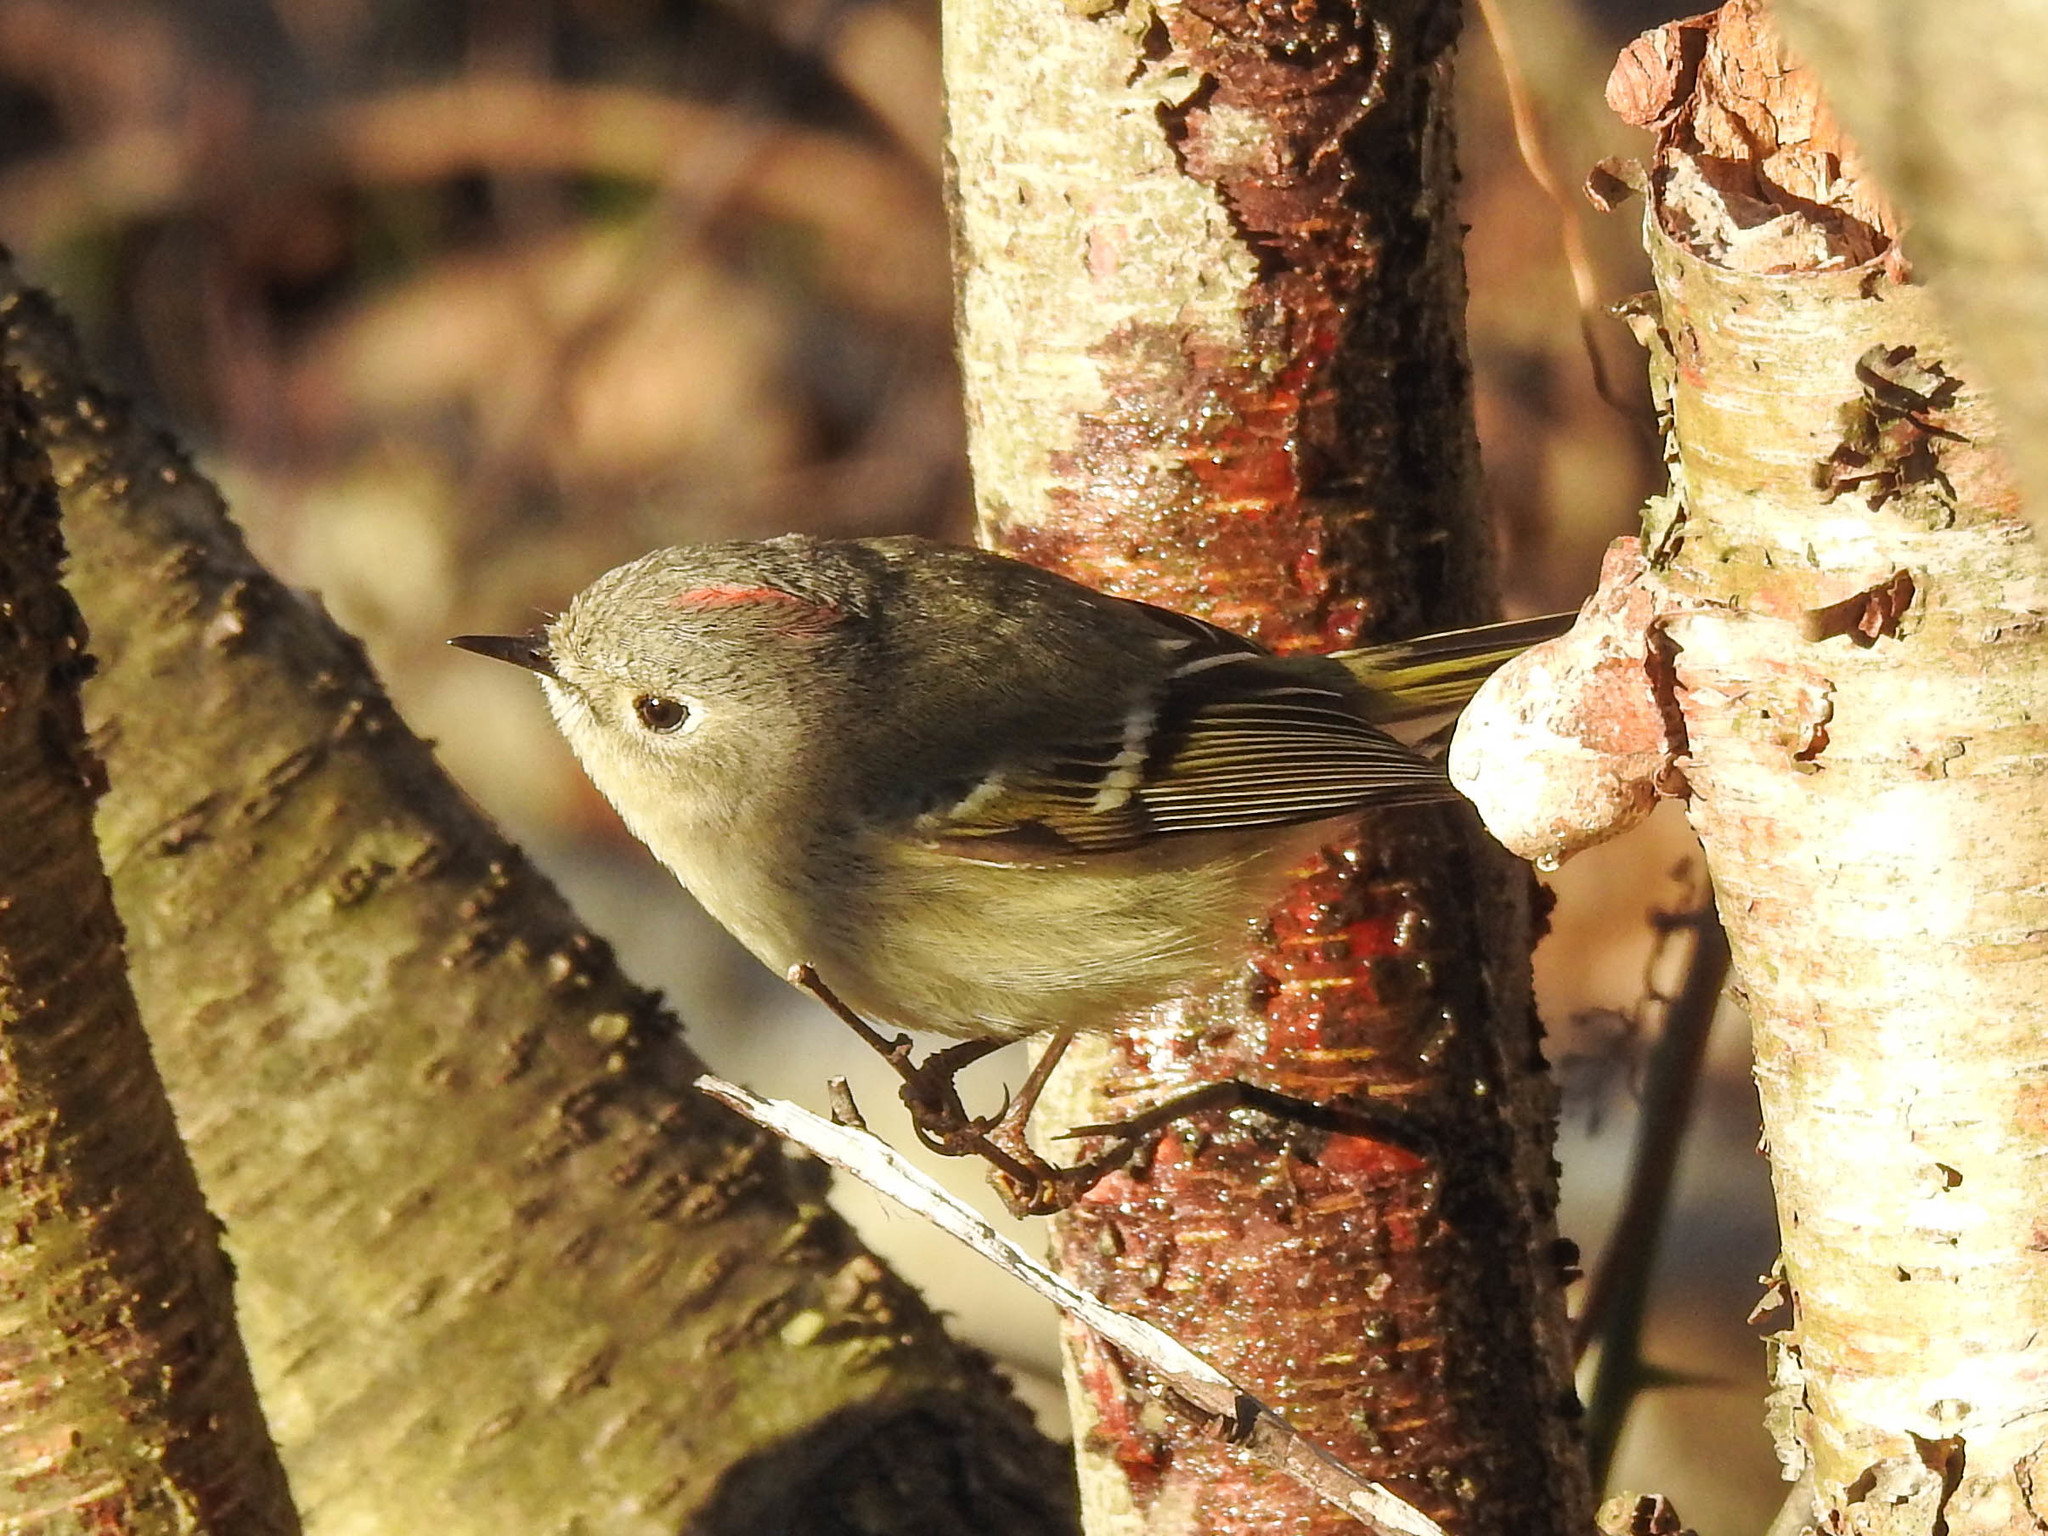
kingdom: Animalia
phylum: Chordata
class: Aves
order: Passeriformes
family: Regulidae
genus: Regulus
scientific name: Regulus calendula
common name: Ruby-crowned kinglet
